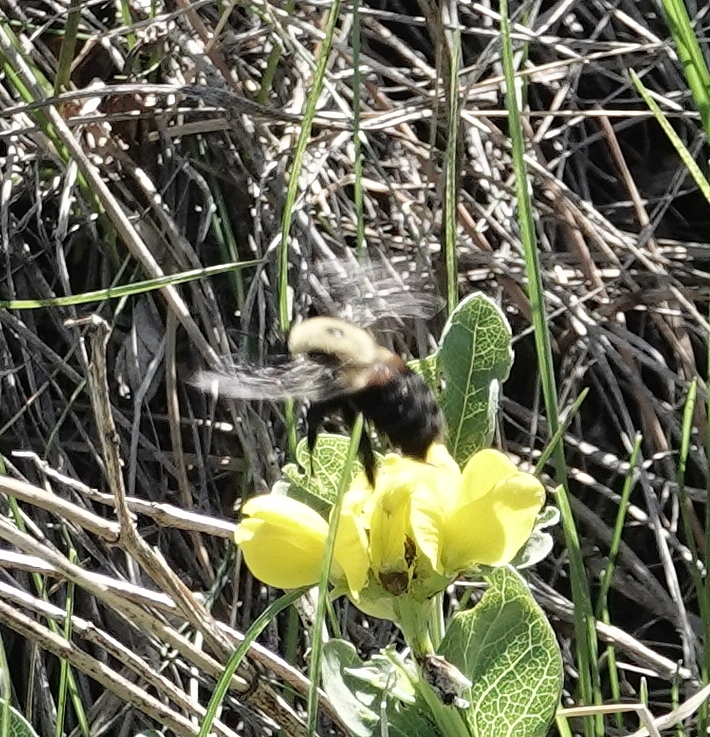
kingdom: Animalia
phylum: Arthropoda
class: Insecta
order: Hymenoptera
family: Apidae
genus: Bombus
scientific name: Bombus griseocollis
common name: Brown-belted bumble bee
